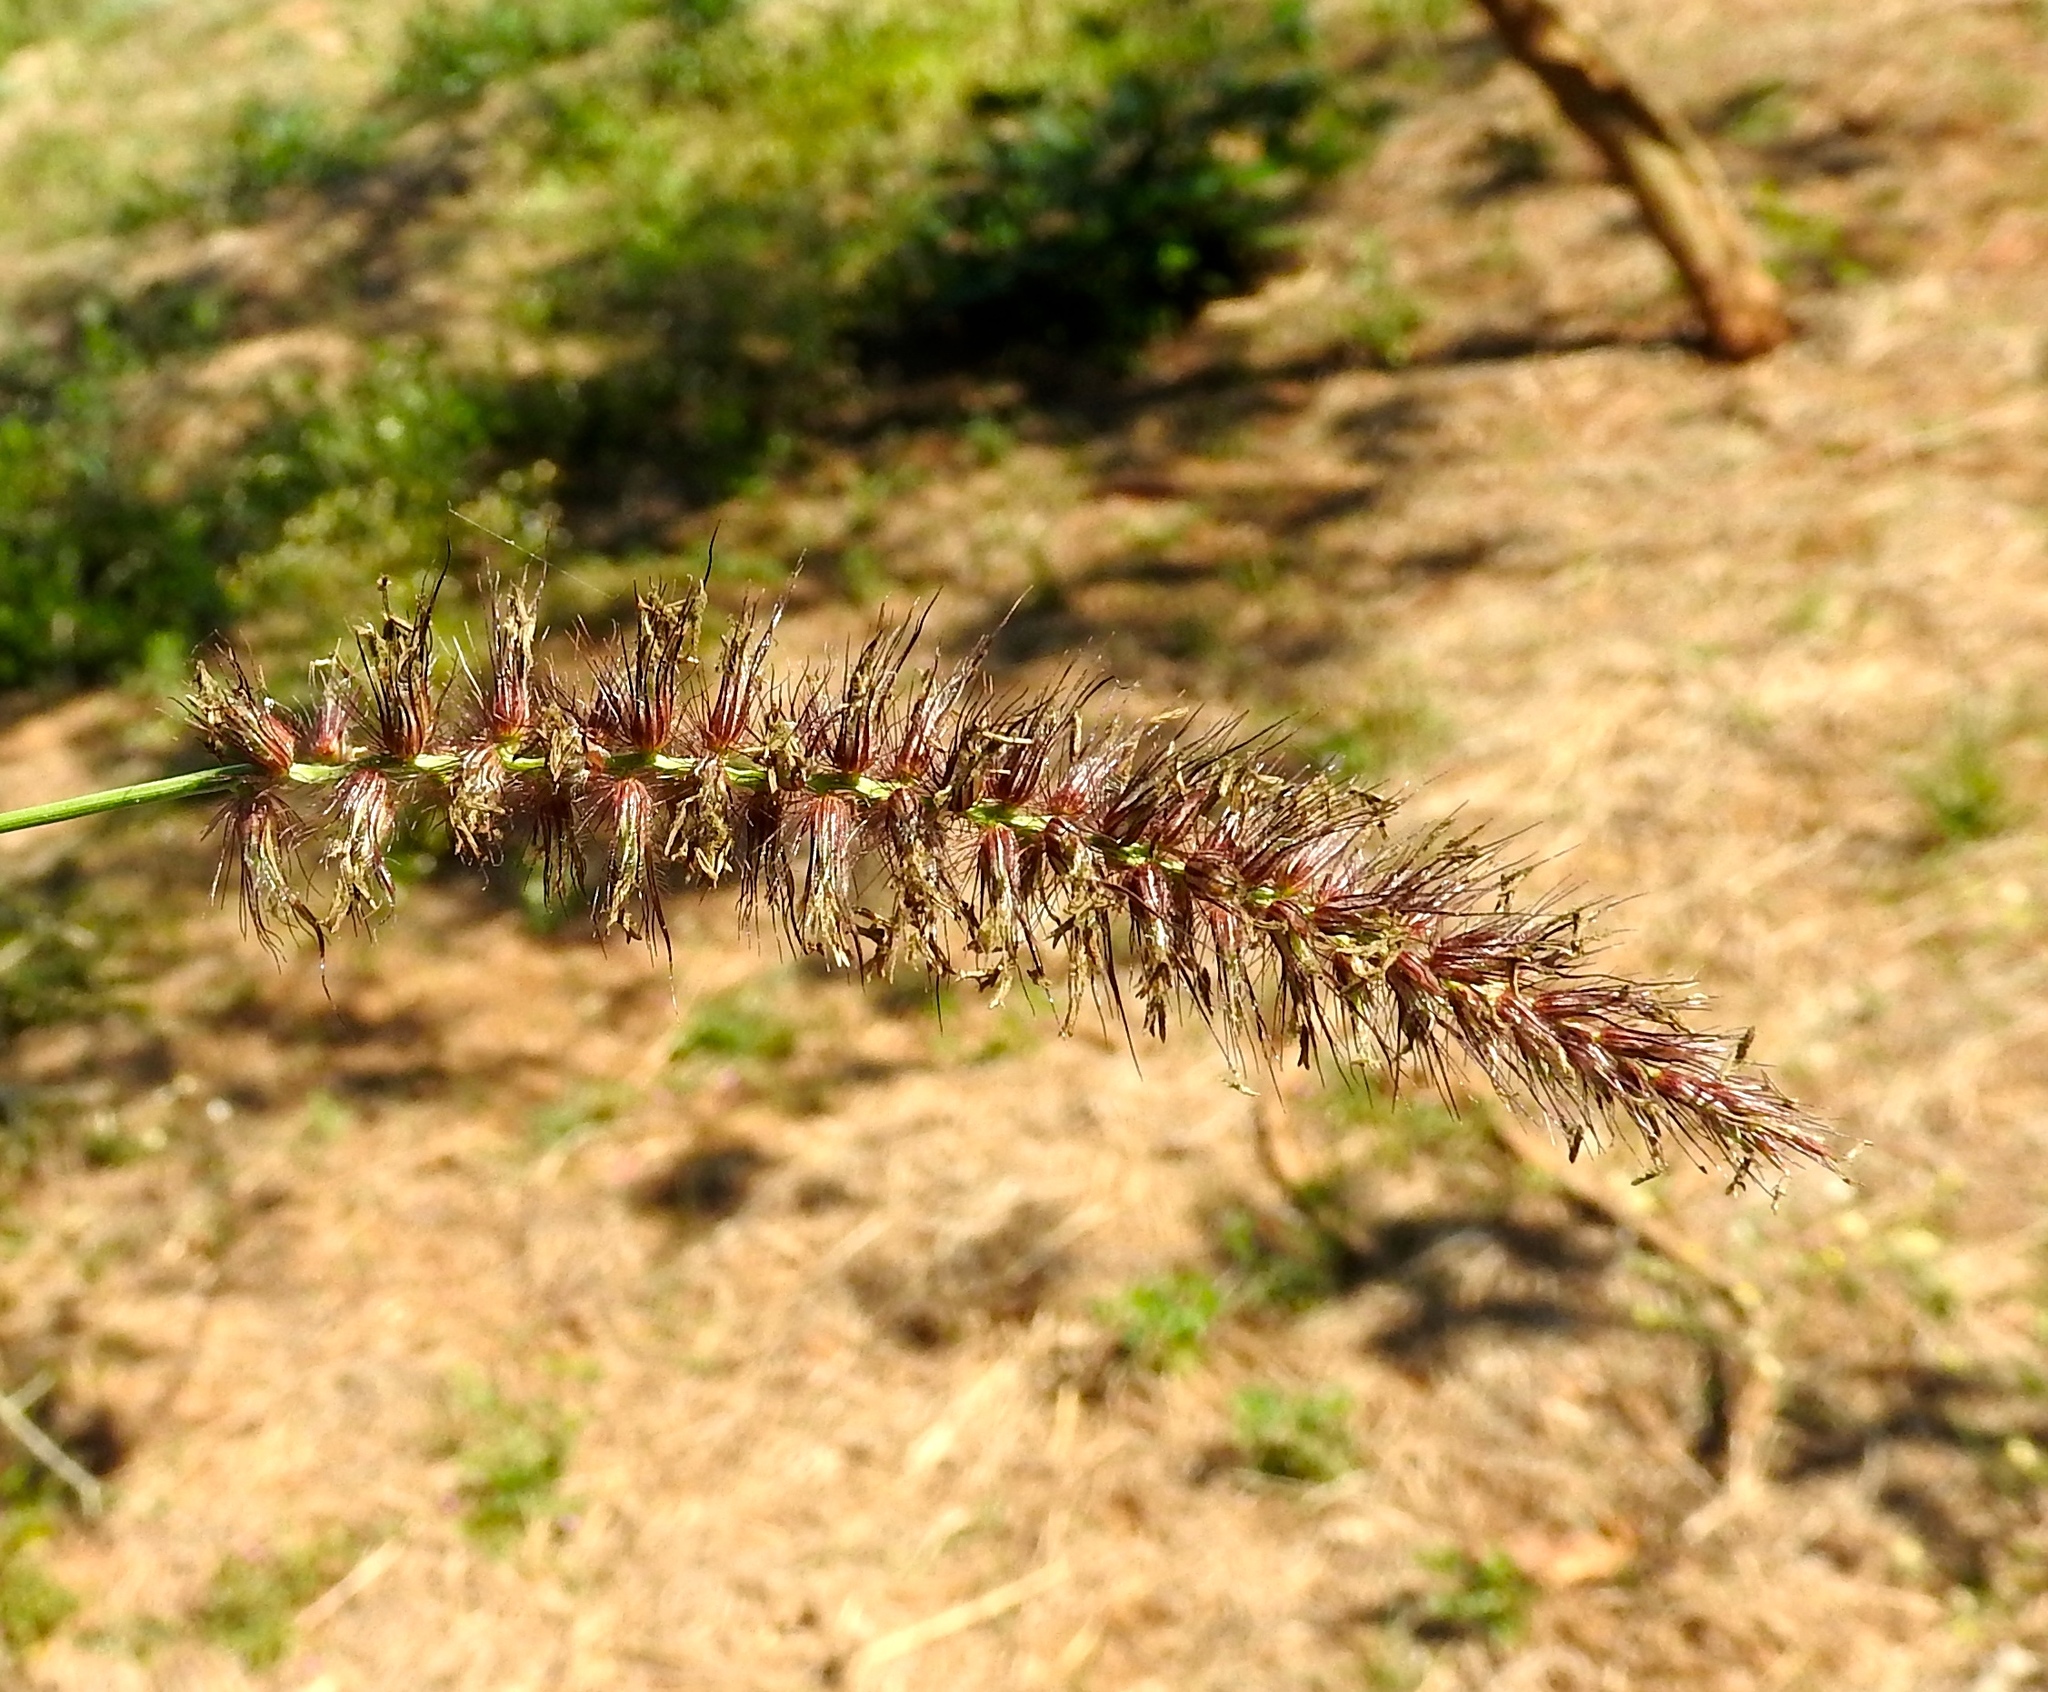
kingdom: Plantae
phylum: Tracheophyta
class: Liliopsida
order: Poales
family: Poaceae
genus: Cenchrus
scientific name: Cenchrus ciliaris
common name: Buffelgrass
